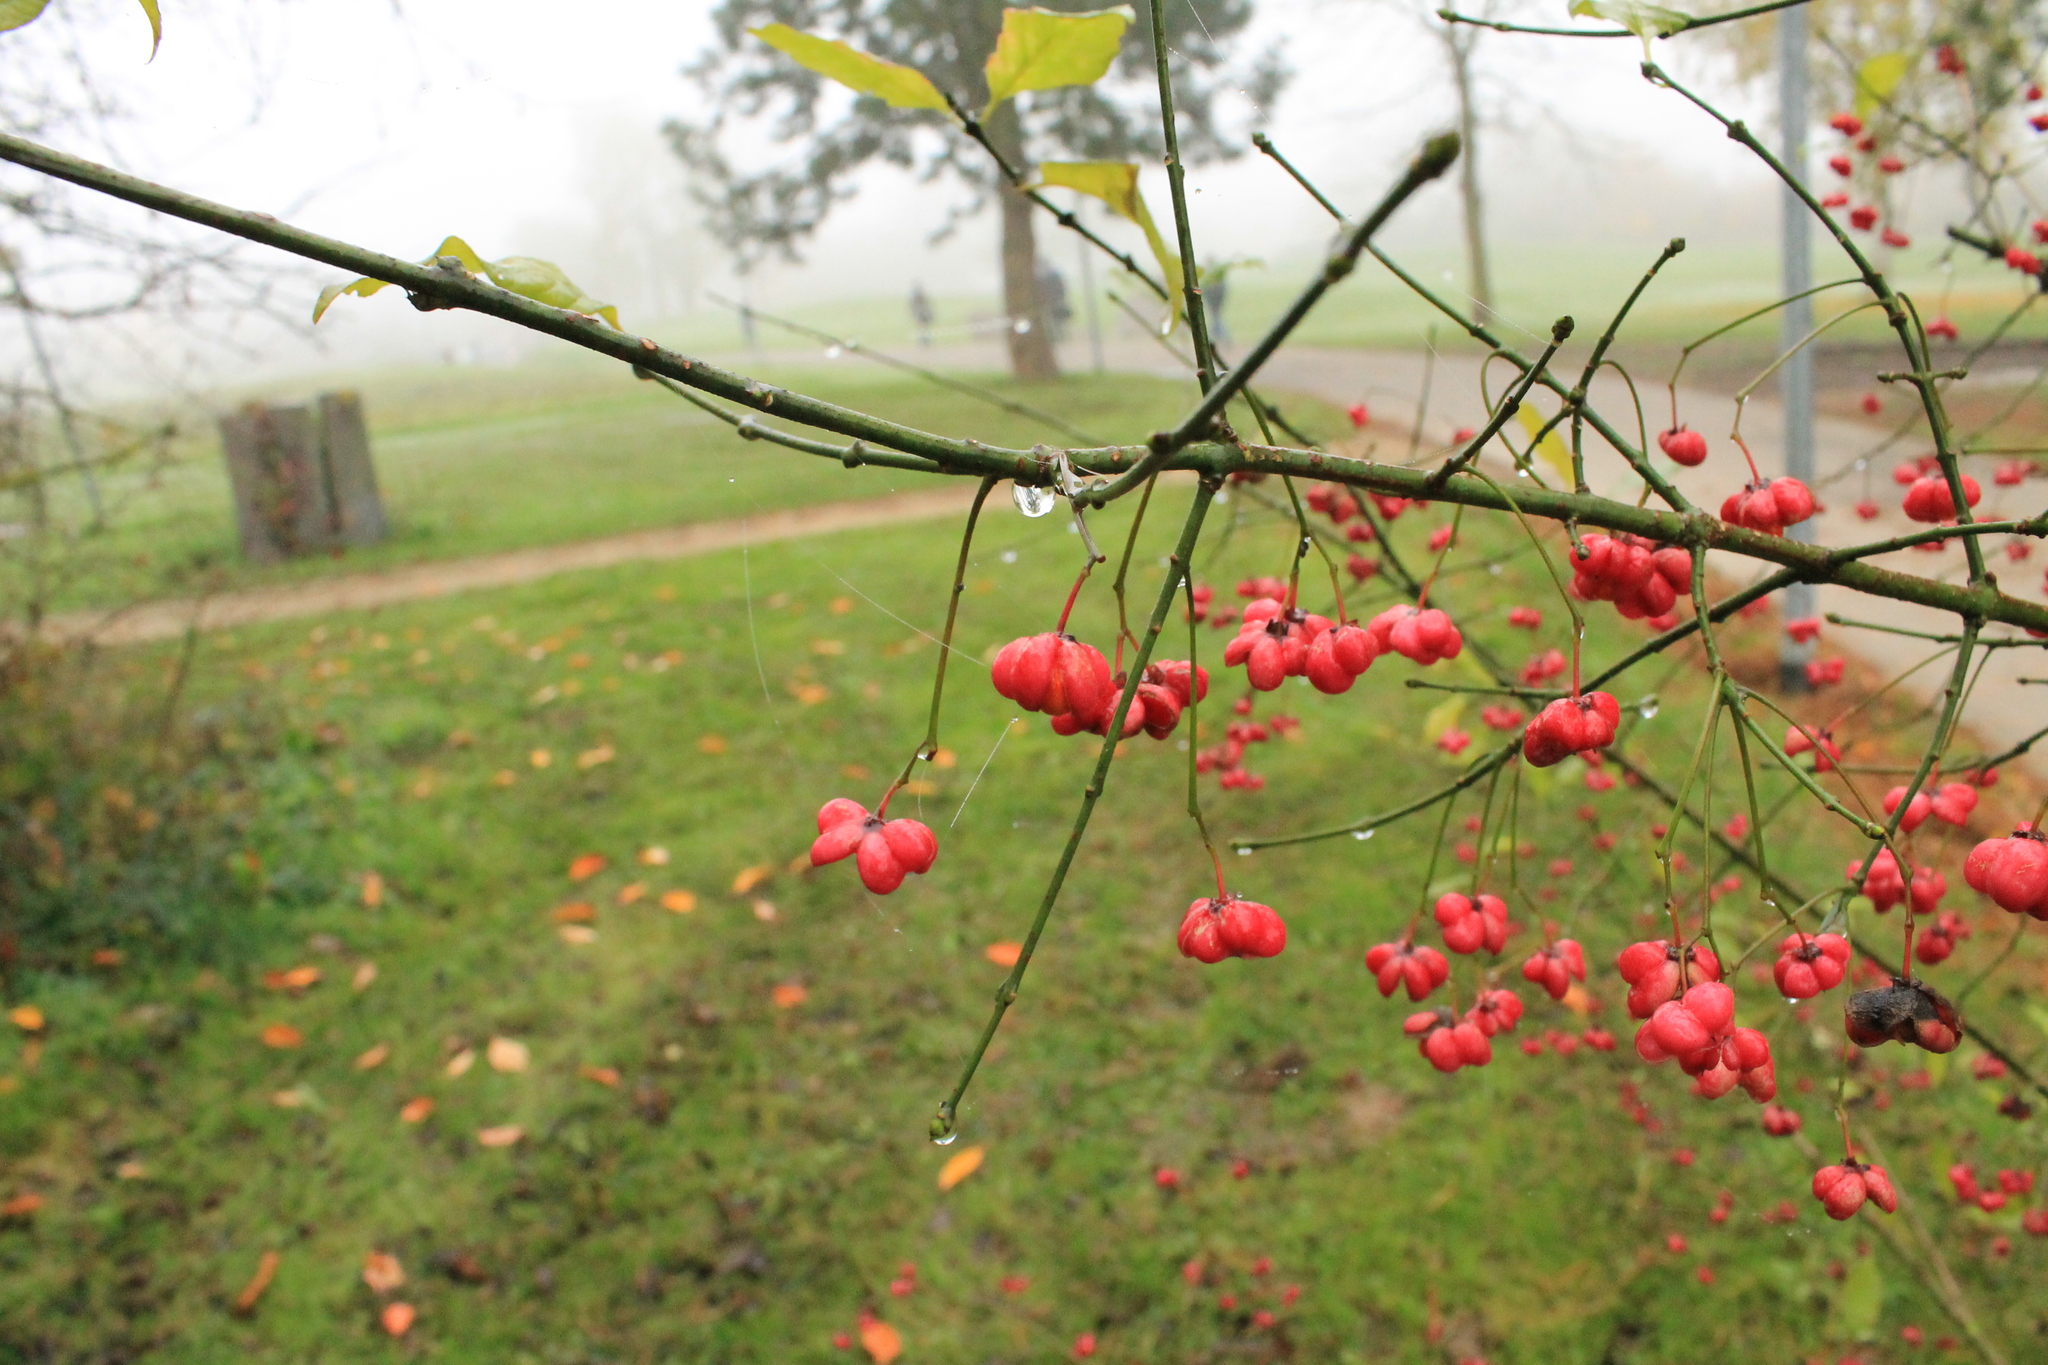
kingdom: Plantae
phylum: Tracheophyta
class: Magnoliopsida
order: Celastrales
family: Celastraceae
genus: Euonymus
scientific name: Euonymus europaeus
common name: Spindle
